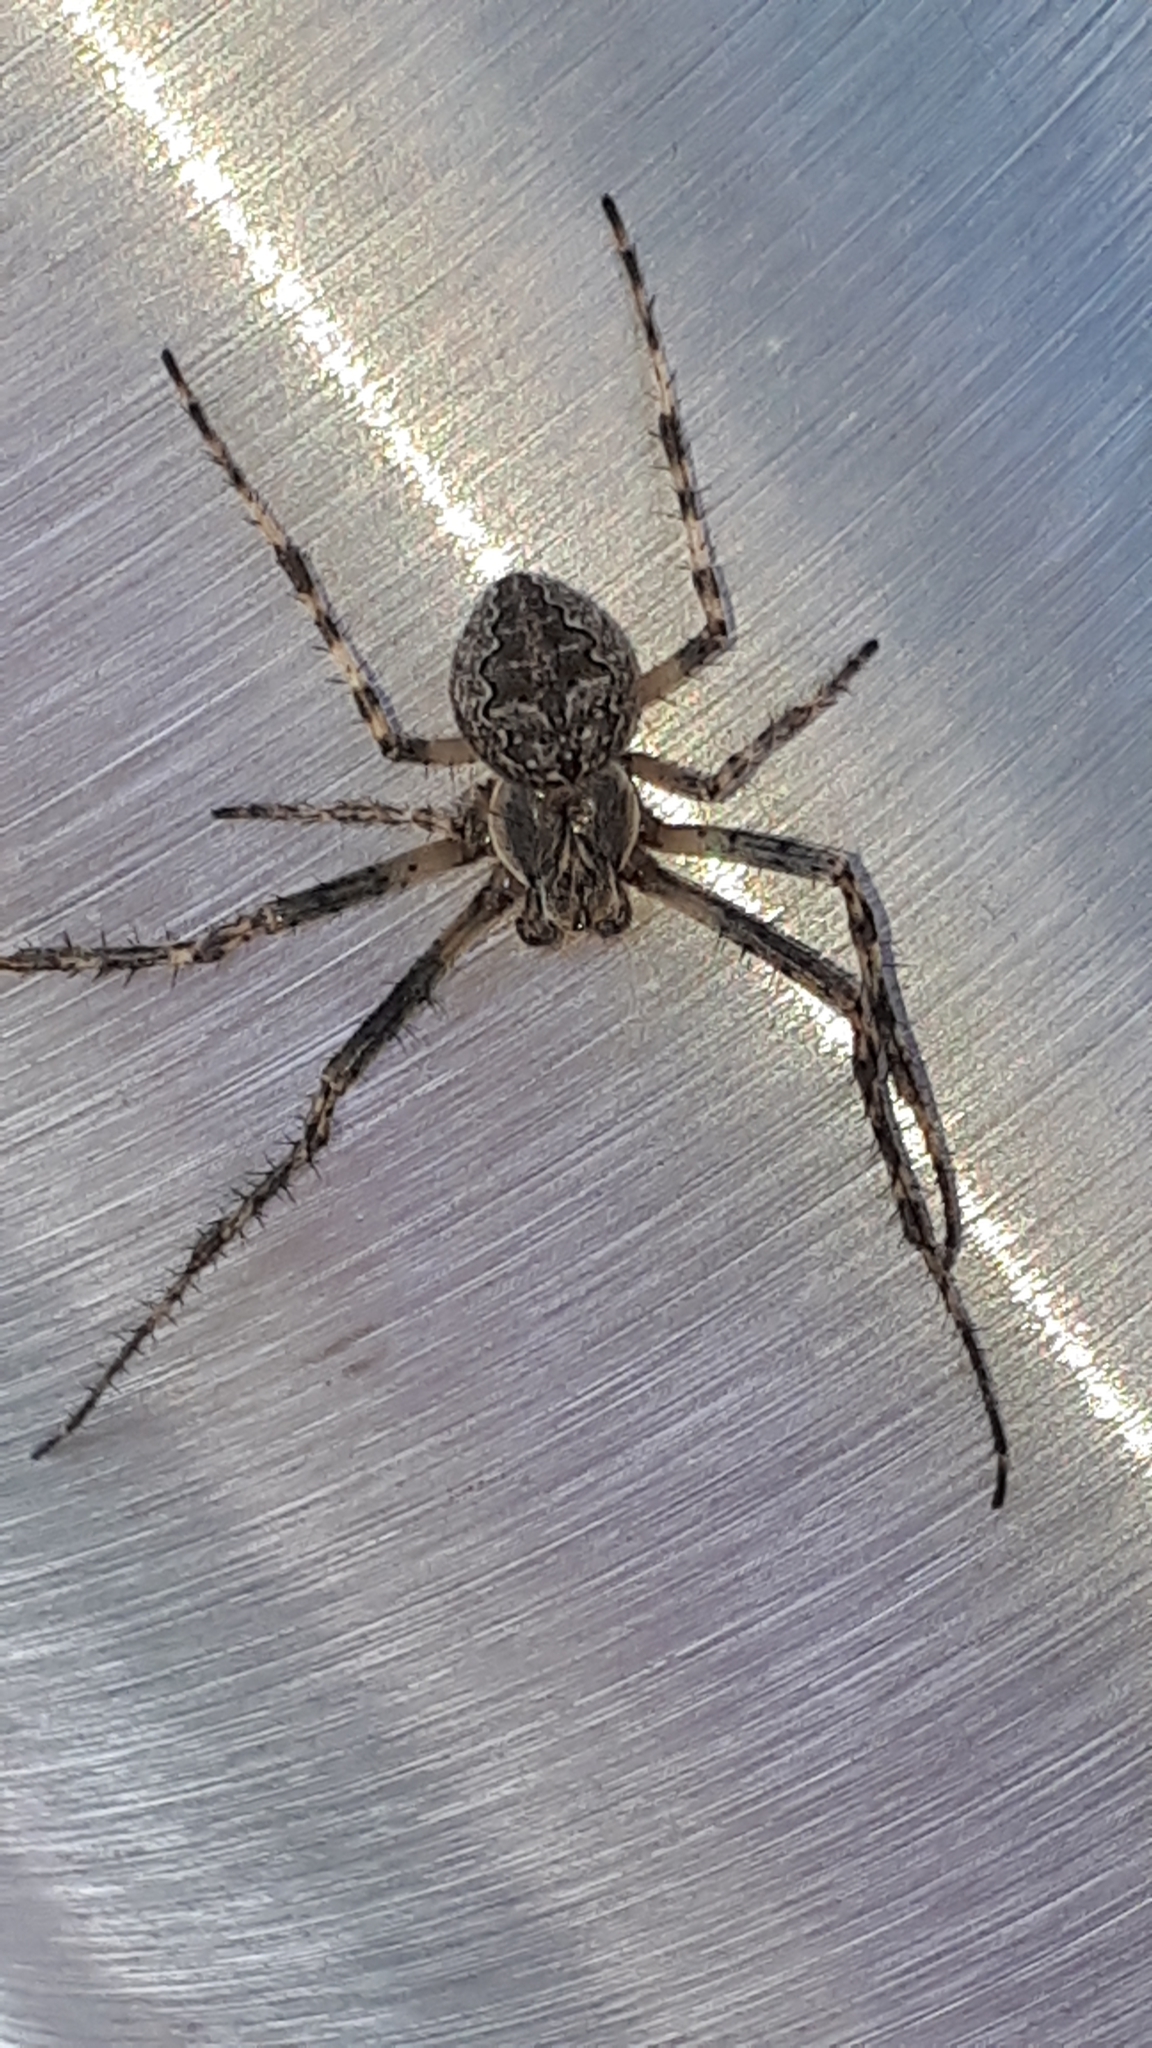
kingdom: Animalia
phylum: Arthropoda
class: Arachnida
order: Araneae
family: Araneidae
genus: Larinioides
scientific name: Larinioides ixobolus
